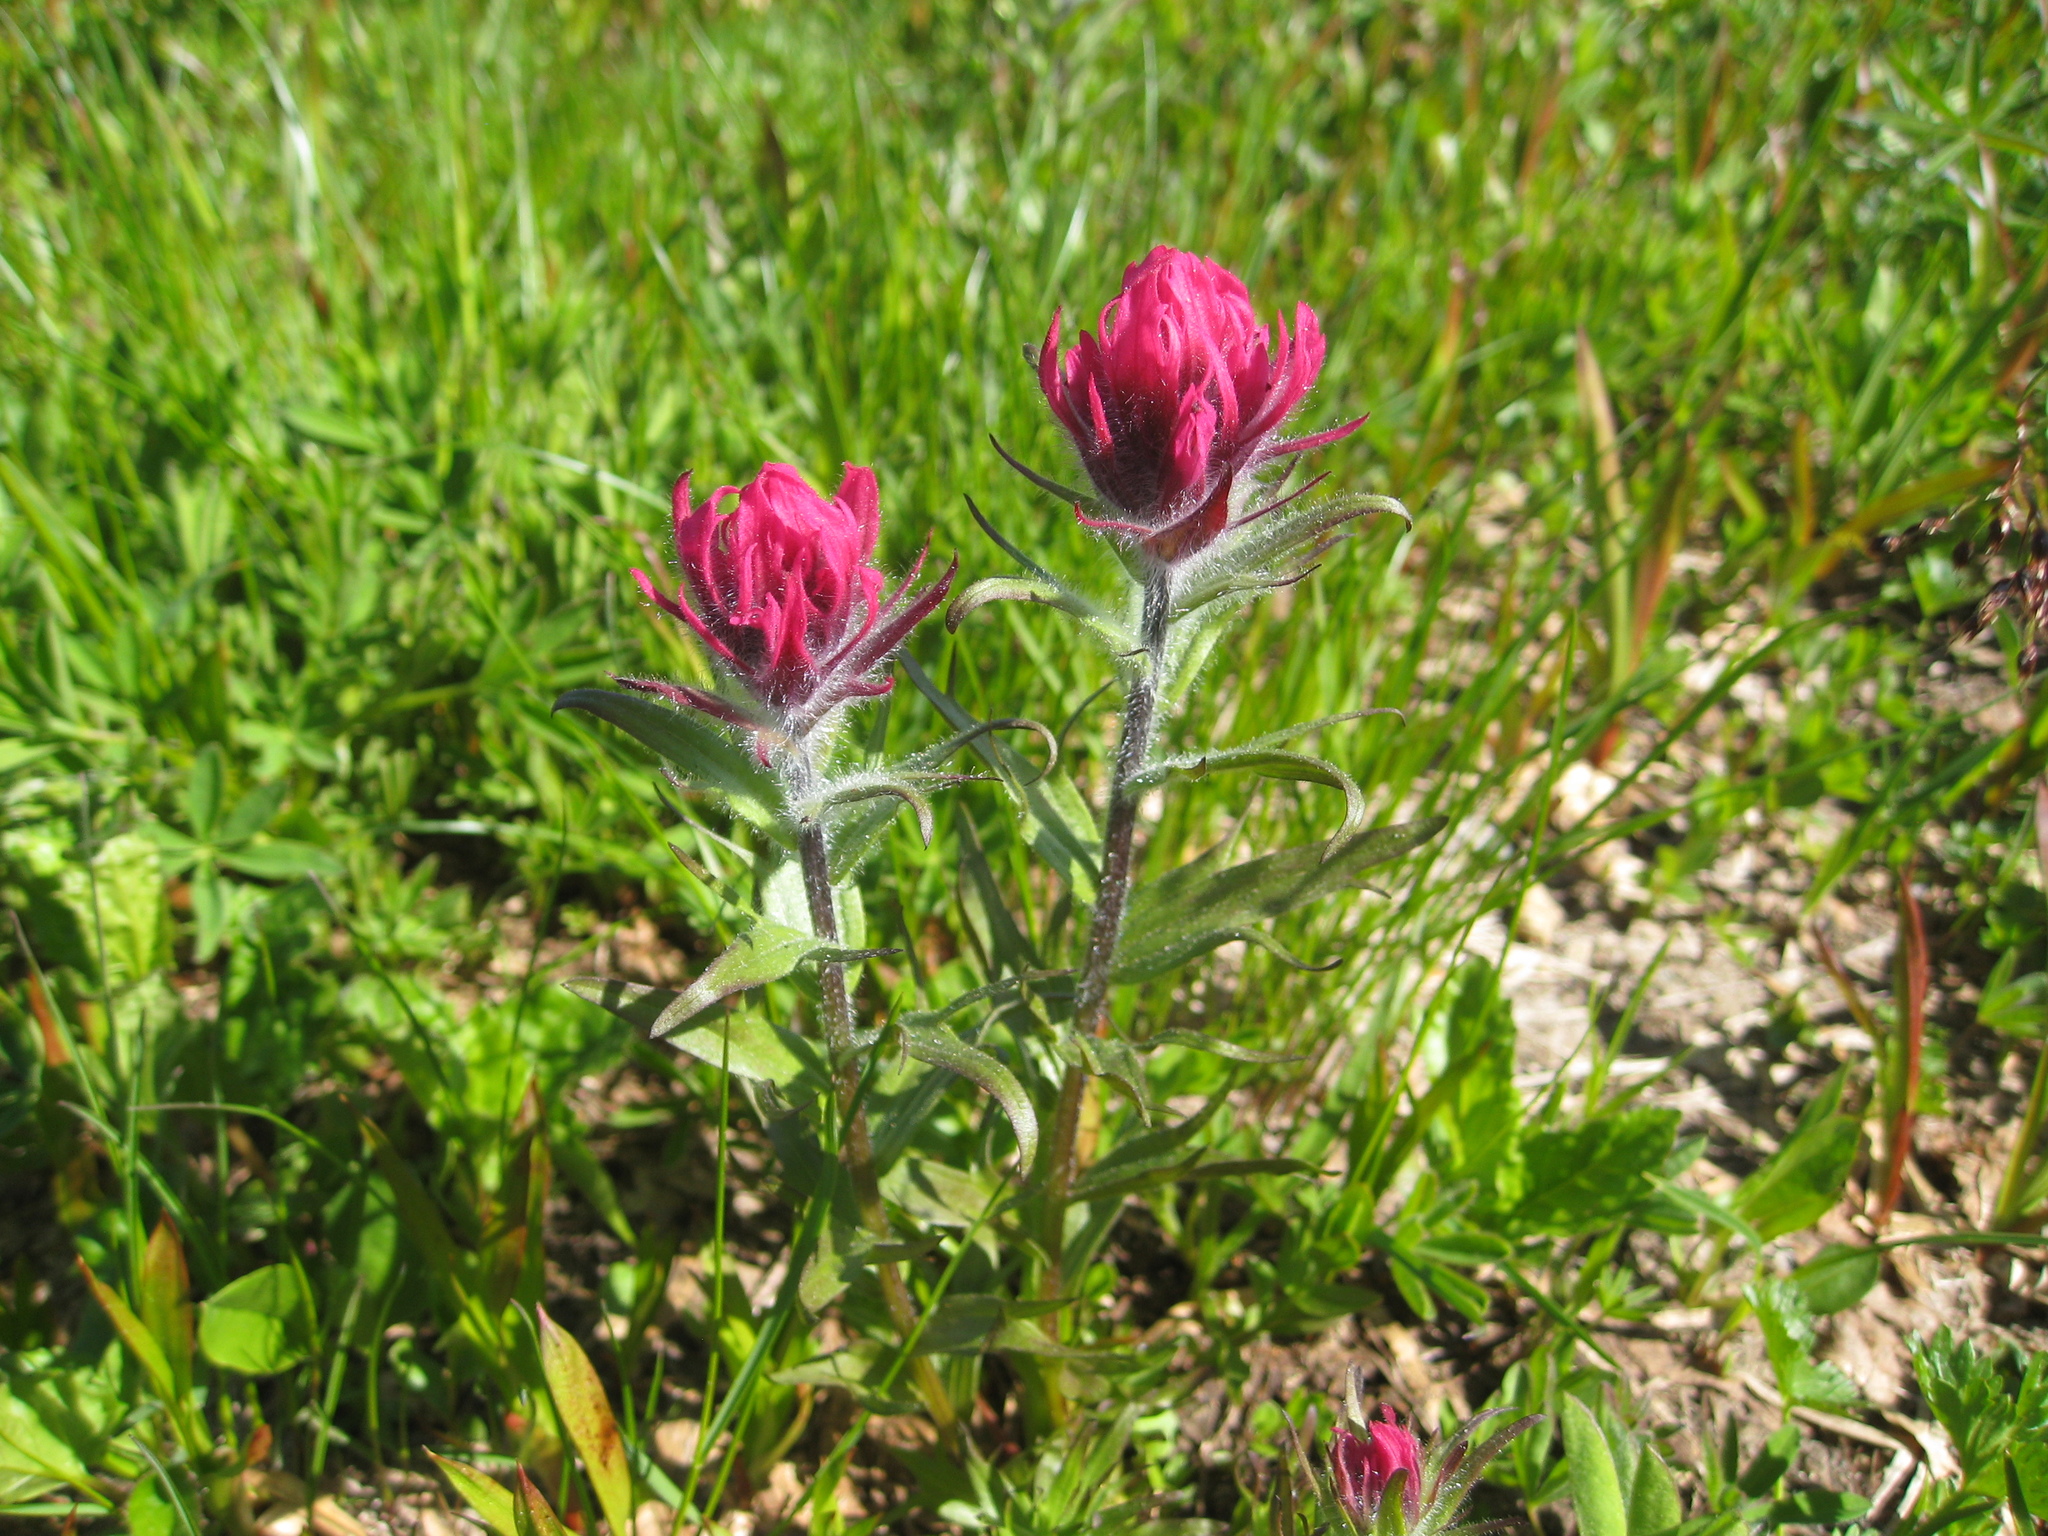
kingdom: Plantae
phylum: Tracheophyta
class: Magnoliopsida
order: Lamiales
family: Orobanchaceae
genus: Castilleja
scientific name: Castilleja parviflora
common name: Mountain paintbrush
